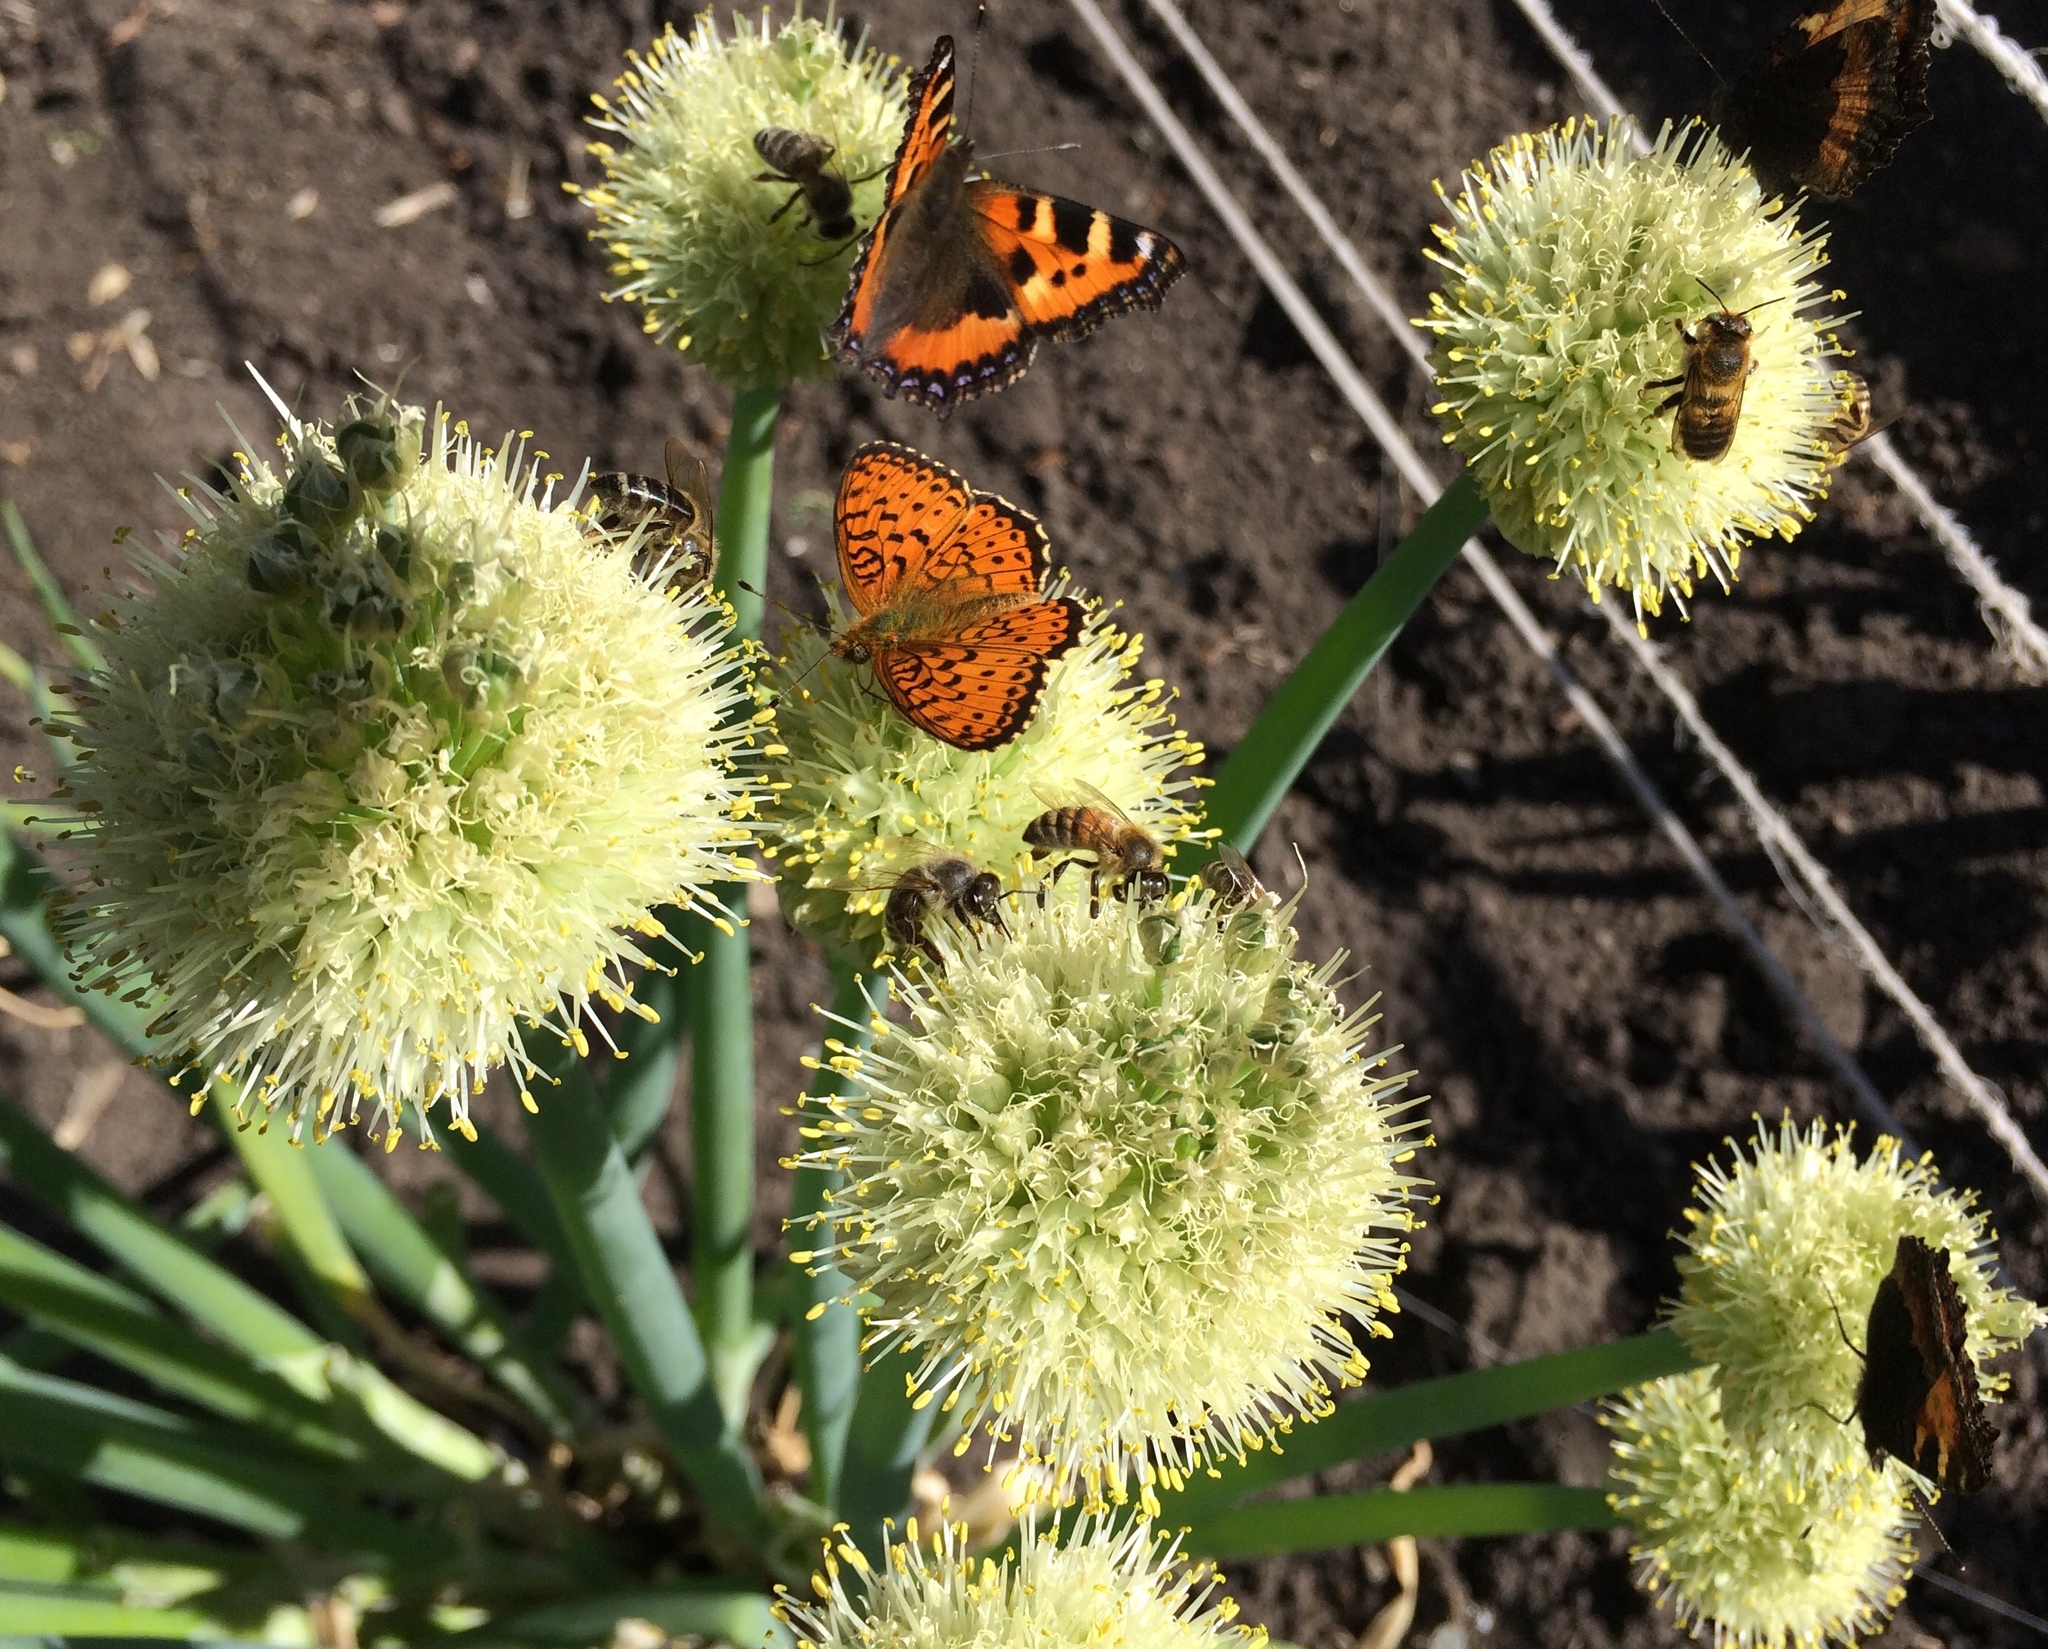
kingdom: Animalia
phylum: Arthropoda
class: Insecta
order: Lepidoptera
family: Nymphalidae
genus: Brenthis
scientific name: Brenthis ino
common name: Lesser marbled fritillary
